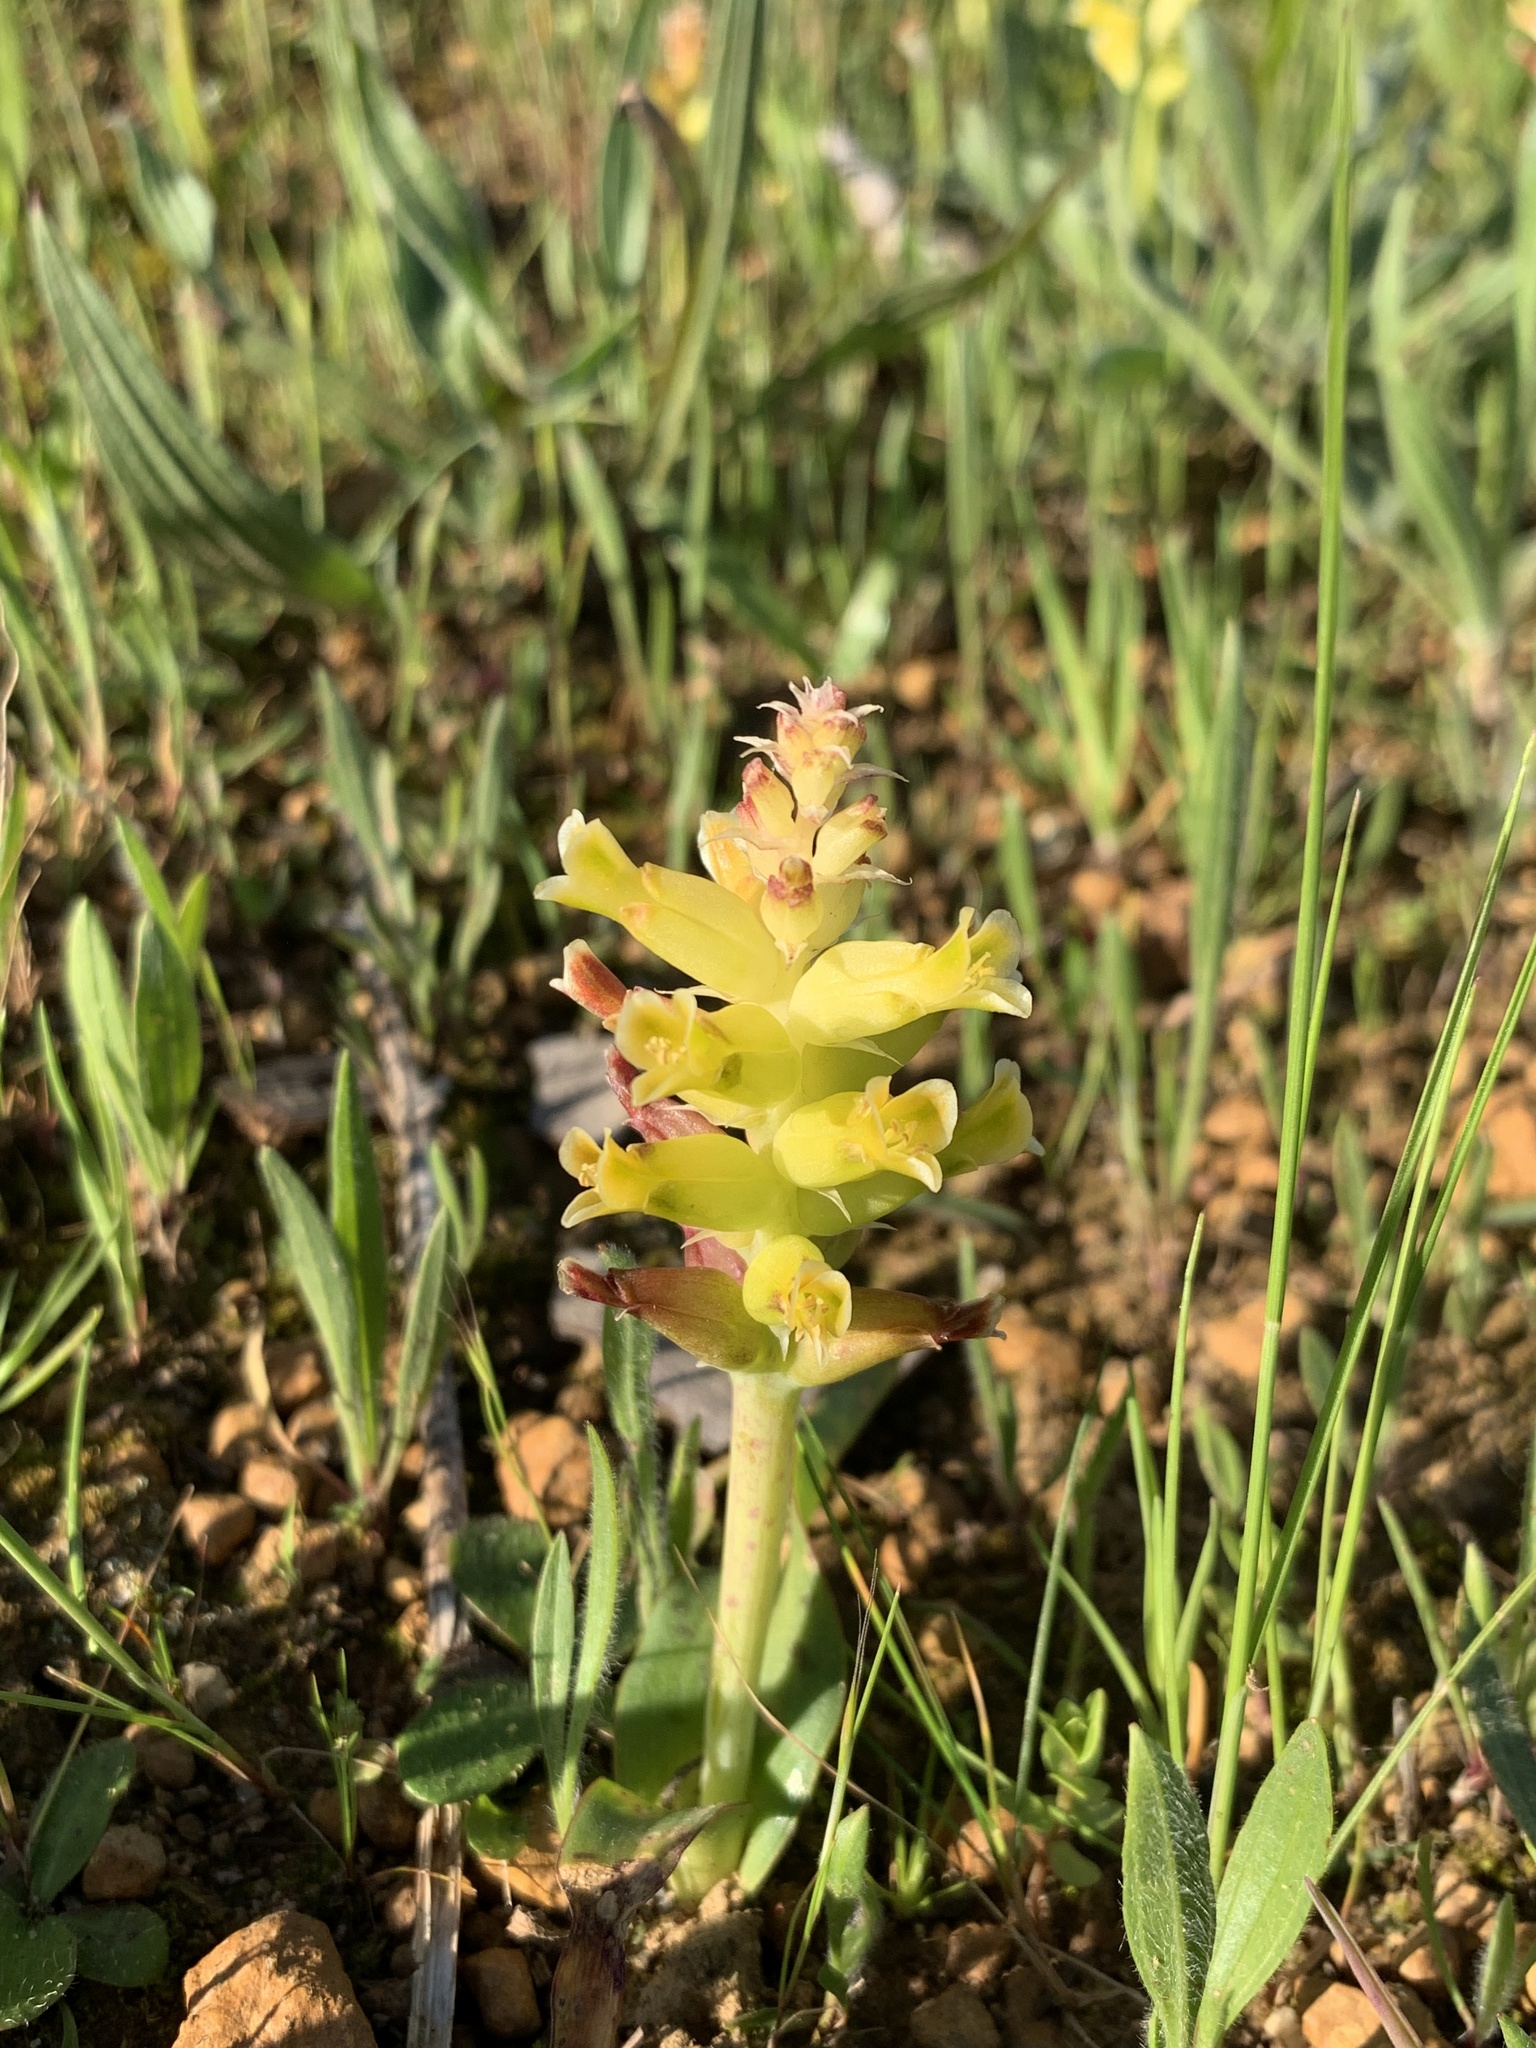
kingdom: Plantae
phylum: Tracheophyta
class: Liliopsida
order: Asparagales
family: Asparagaceae
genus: Lachenalia
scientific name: Lachenalia lutea
